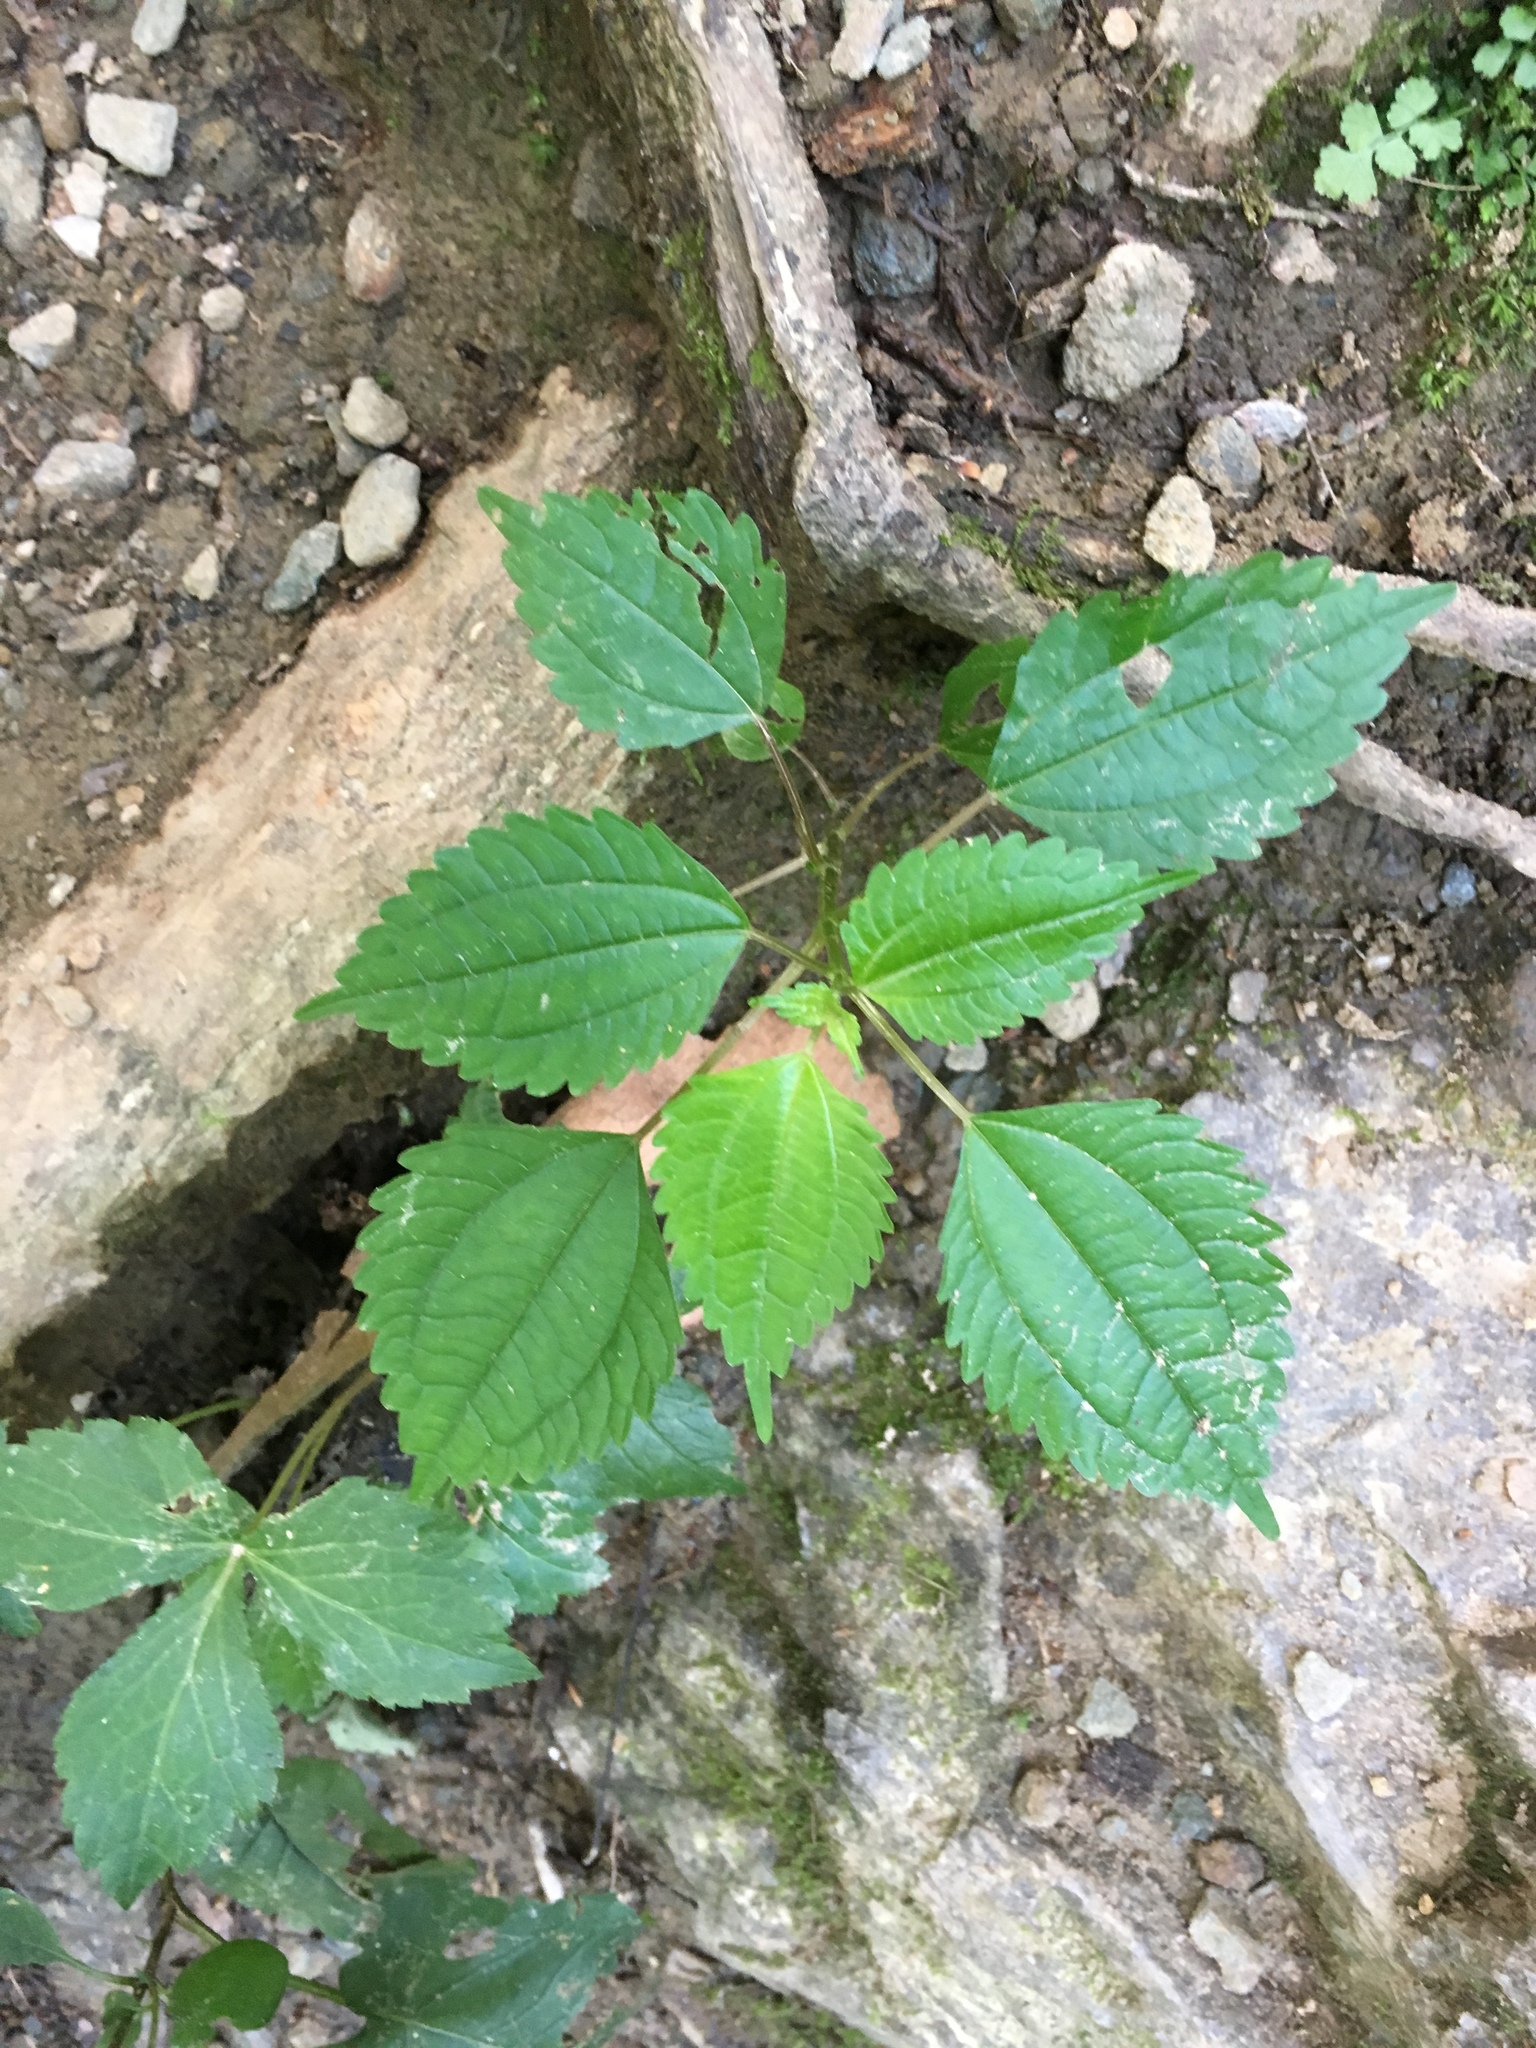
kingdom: Plantae
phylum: Tracheophyta
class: Magnoliopsida
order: Rosales
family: Urticaceae
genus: Pilea
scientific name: Pilea pumila
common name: Clearweed
